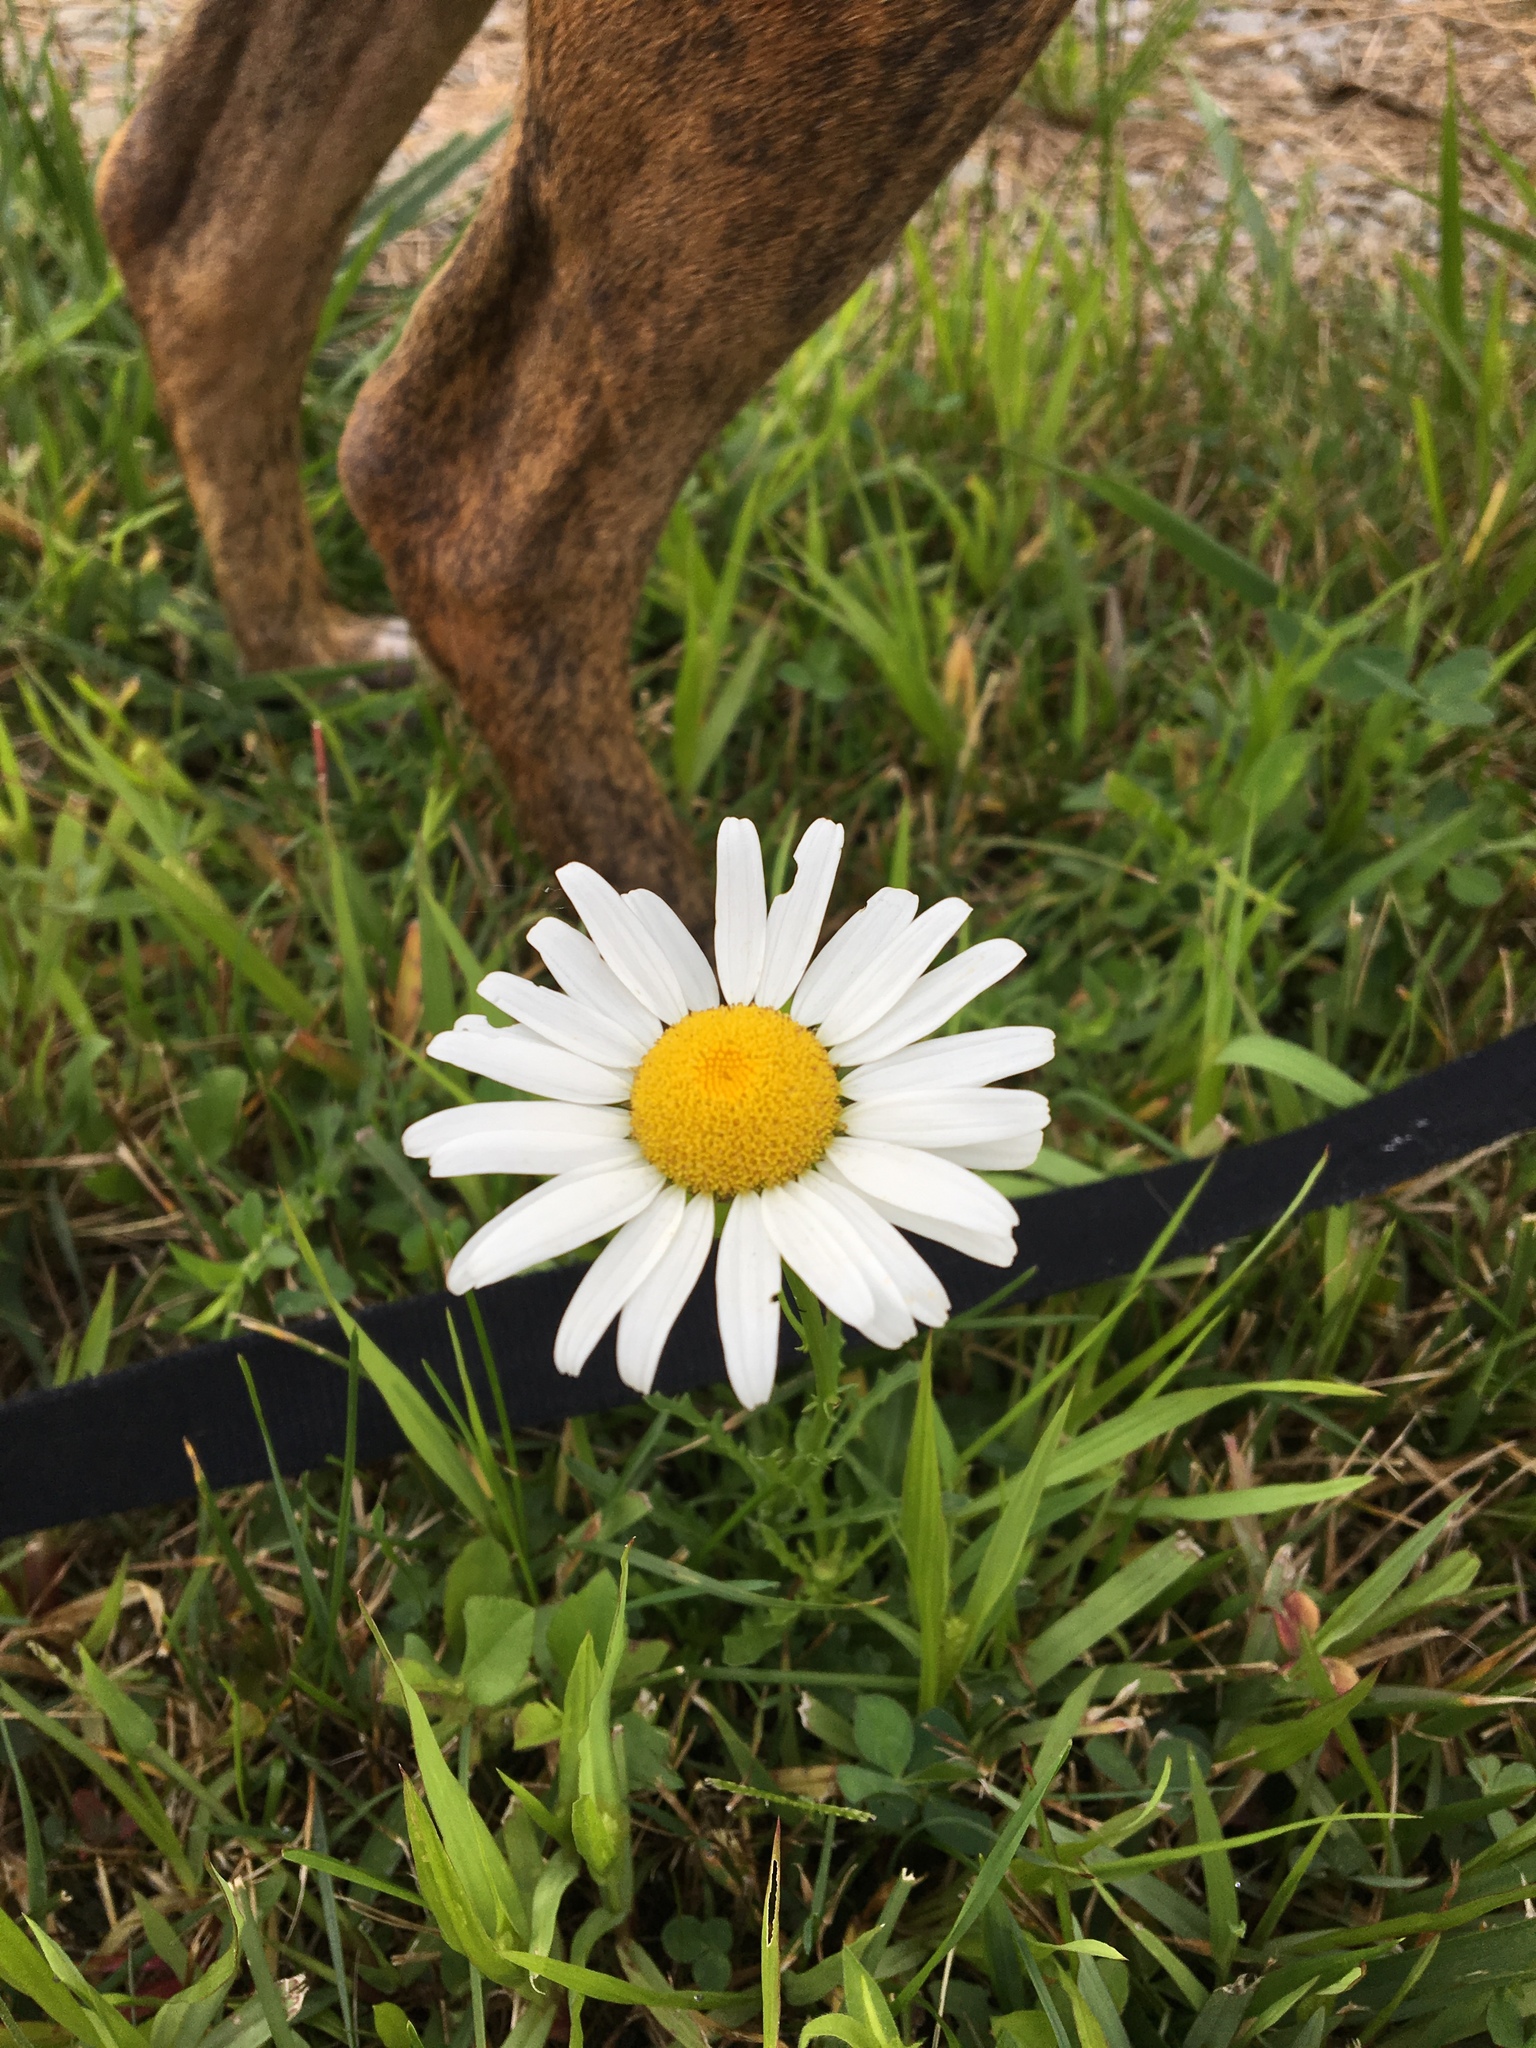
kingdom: Plantae
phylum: Tracheophyta
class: Magnoliopsida
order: Asterales
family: Asteraceae
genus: Leucanthemum
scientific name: Leucanthemum vulgare
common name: Oxeye daisy
